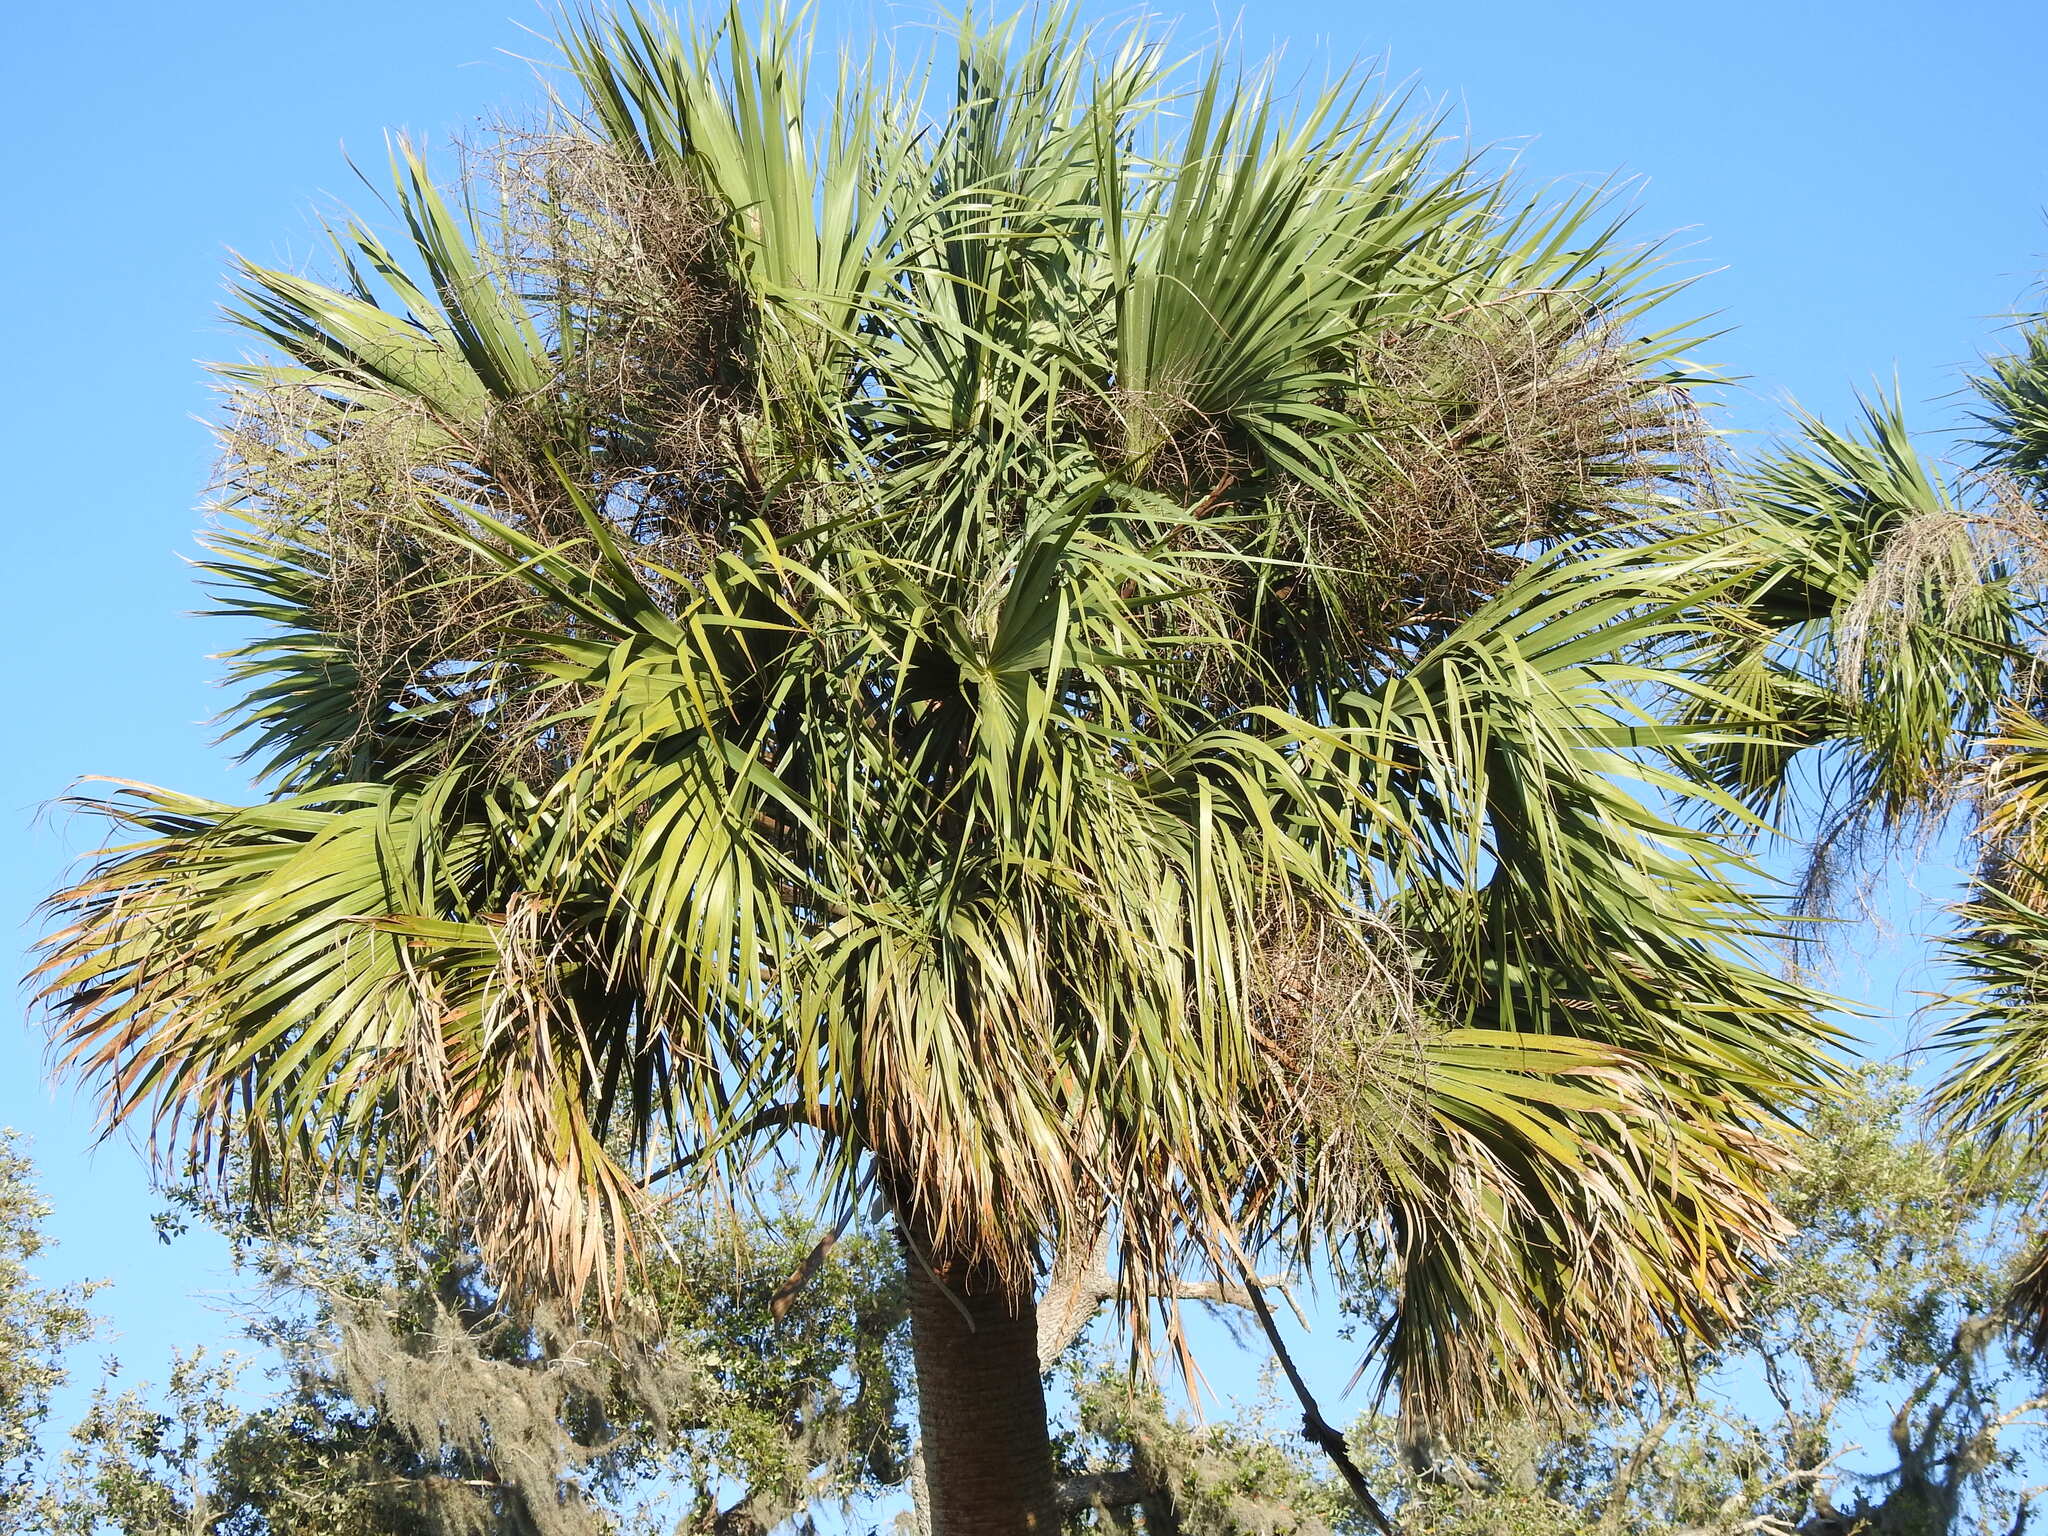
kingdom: Plantae
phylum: Tracheophyta
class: Liliopsida
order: Arecales
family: Arecaceae
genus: Sabal
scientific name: Sabal palmetto
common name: Blue palmetto
